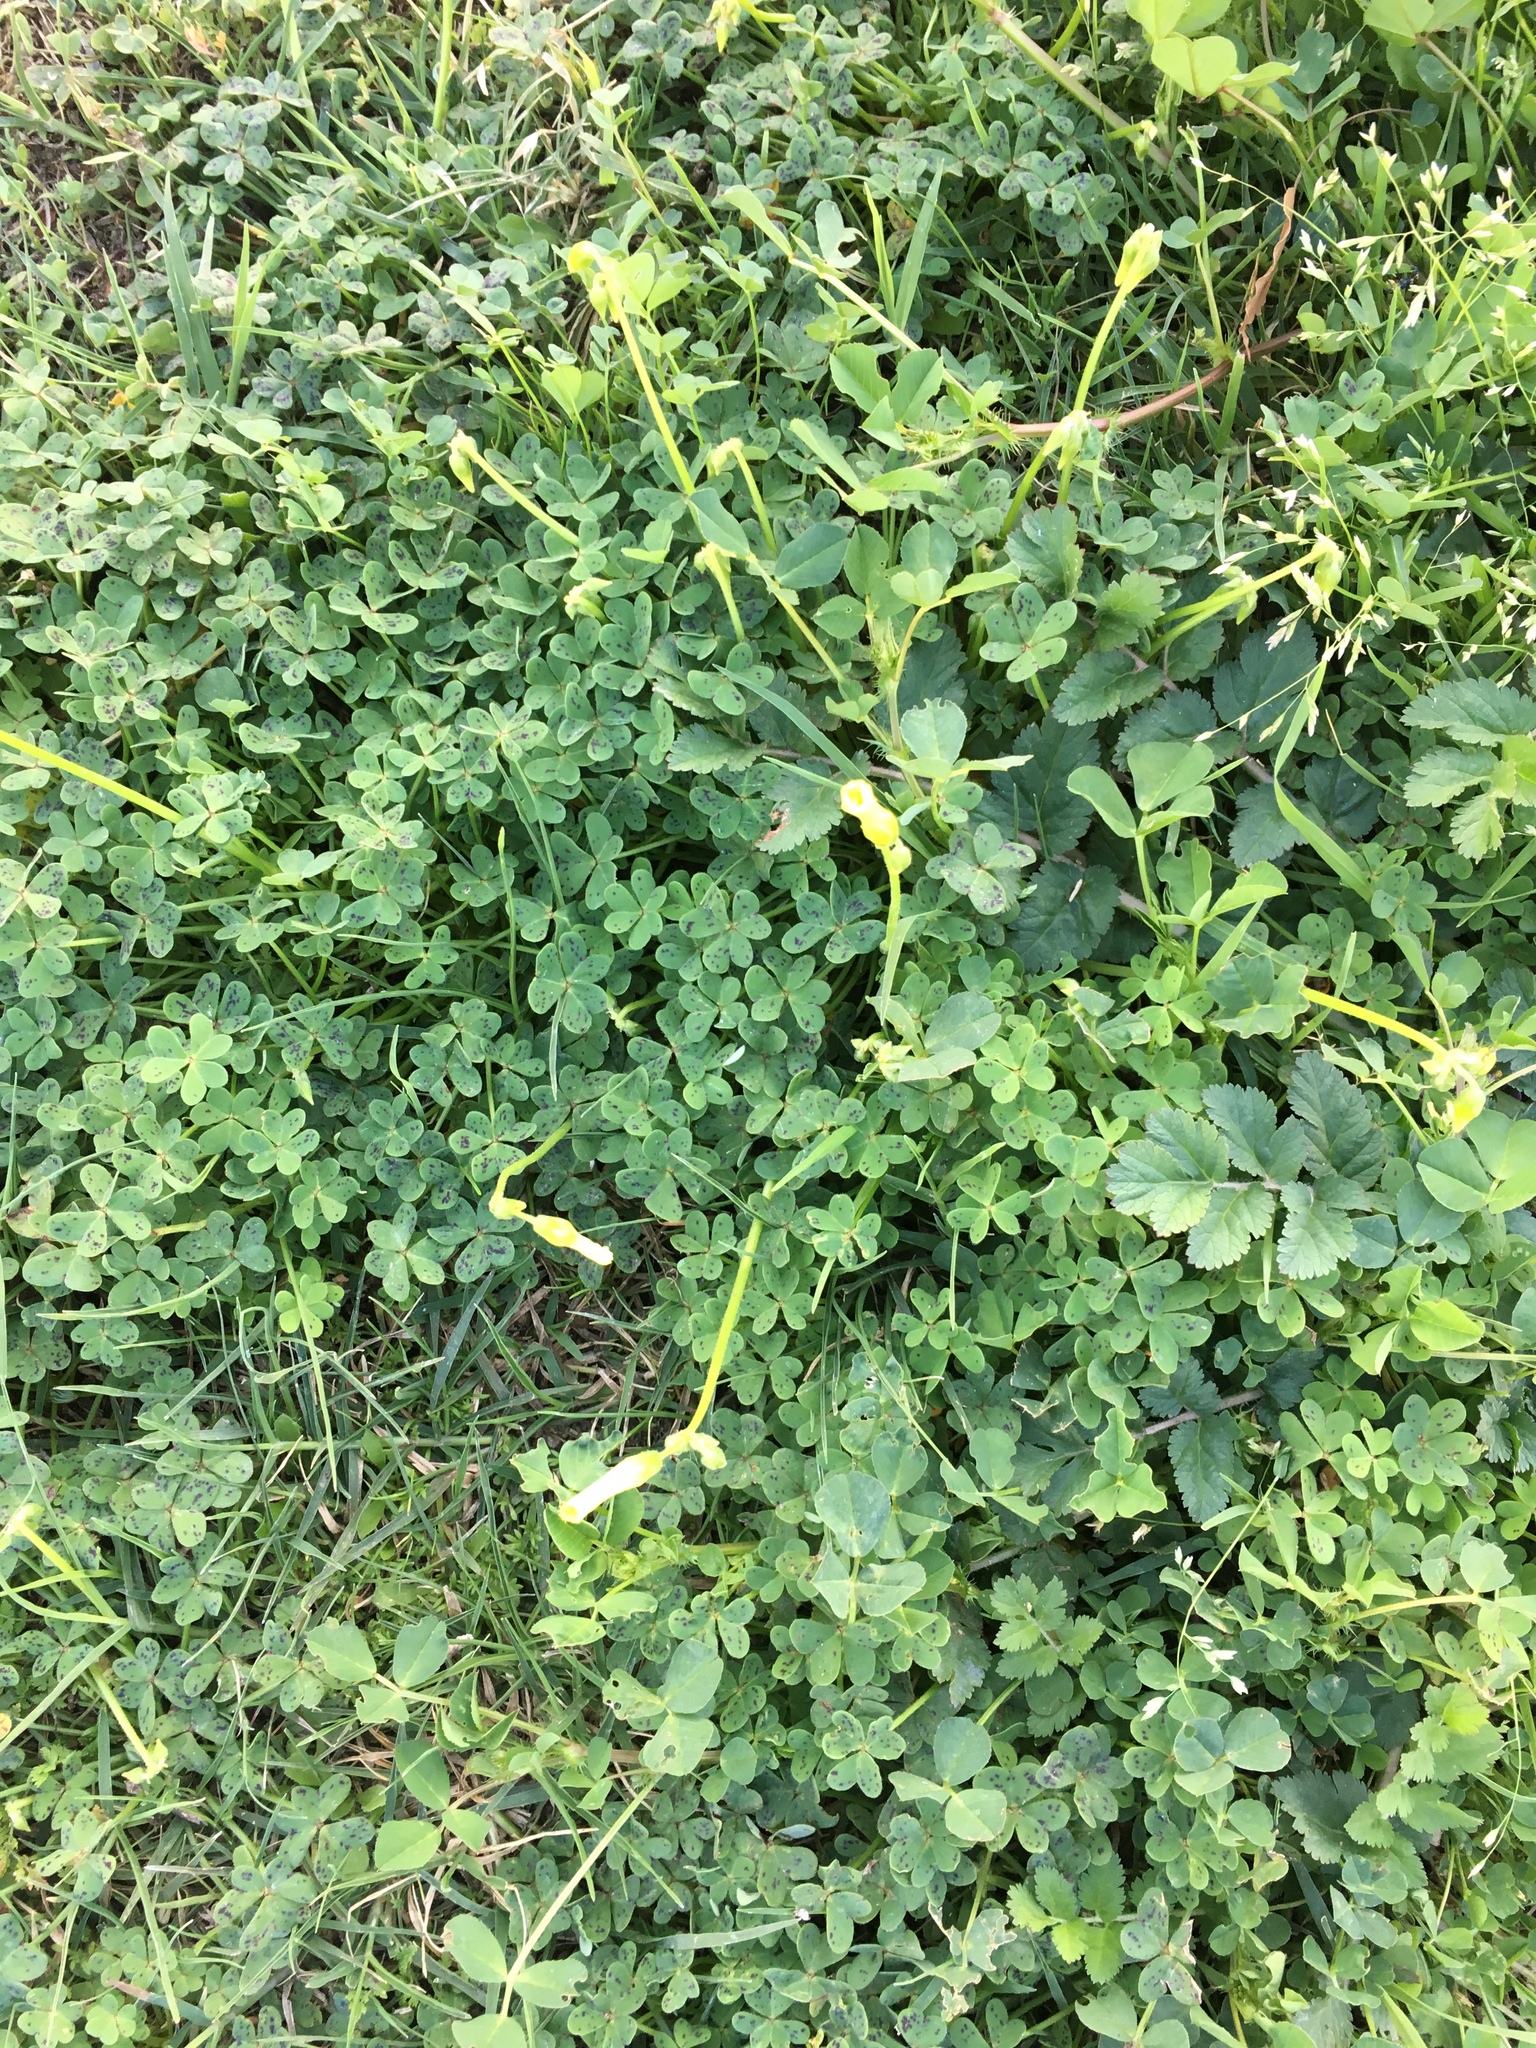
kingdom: Plantae
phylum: Tracheophyta
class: Magnoliopsida
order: Oxalidales
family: Oxalidaceae
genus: Oxalis
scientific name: Oxalis pes-caprae
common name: Bermuda-buttercup
